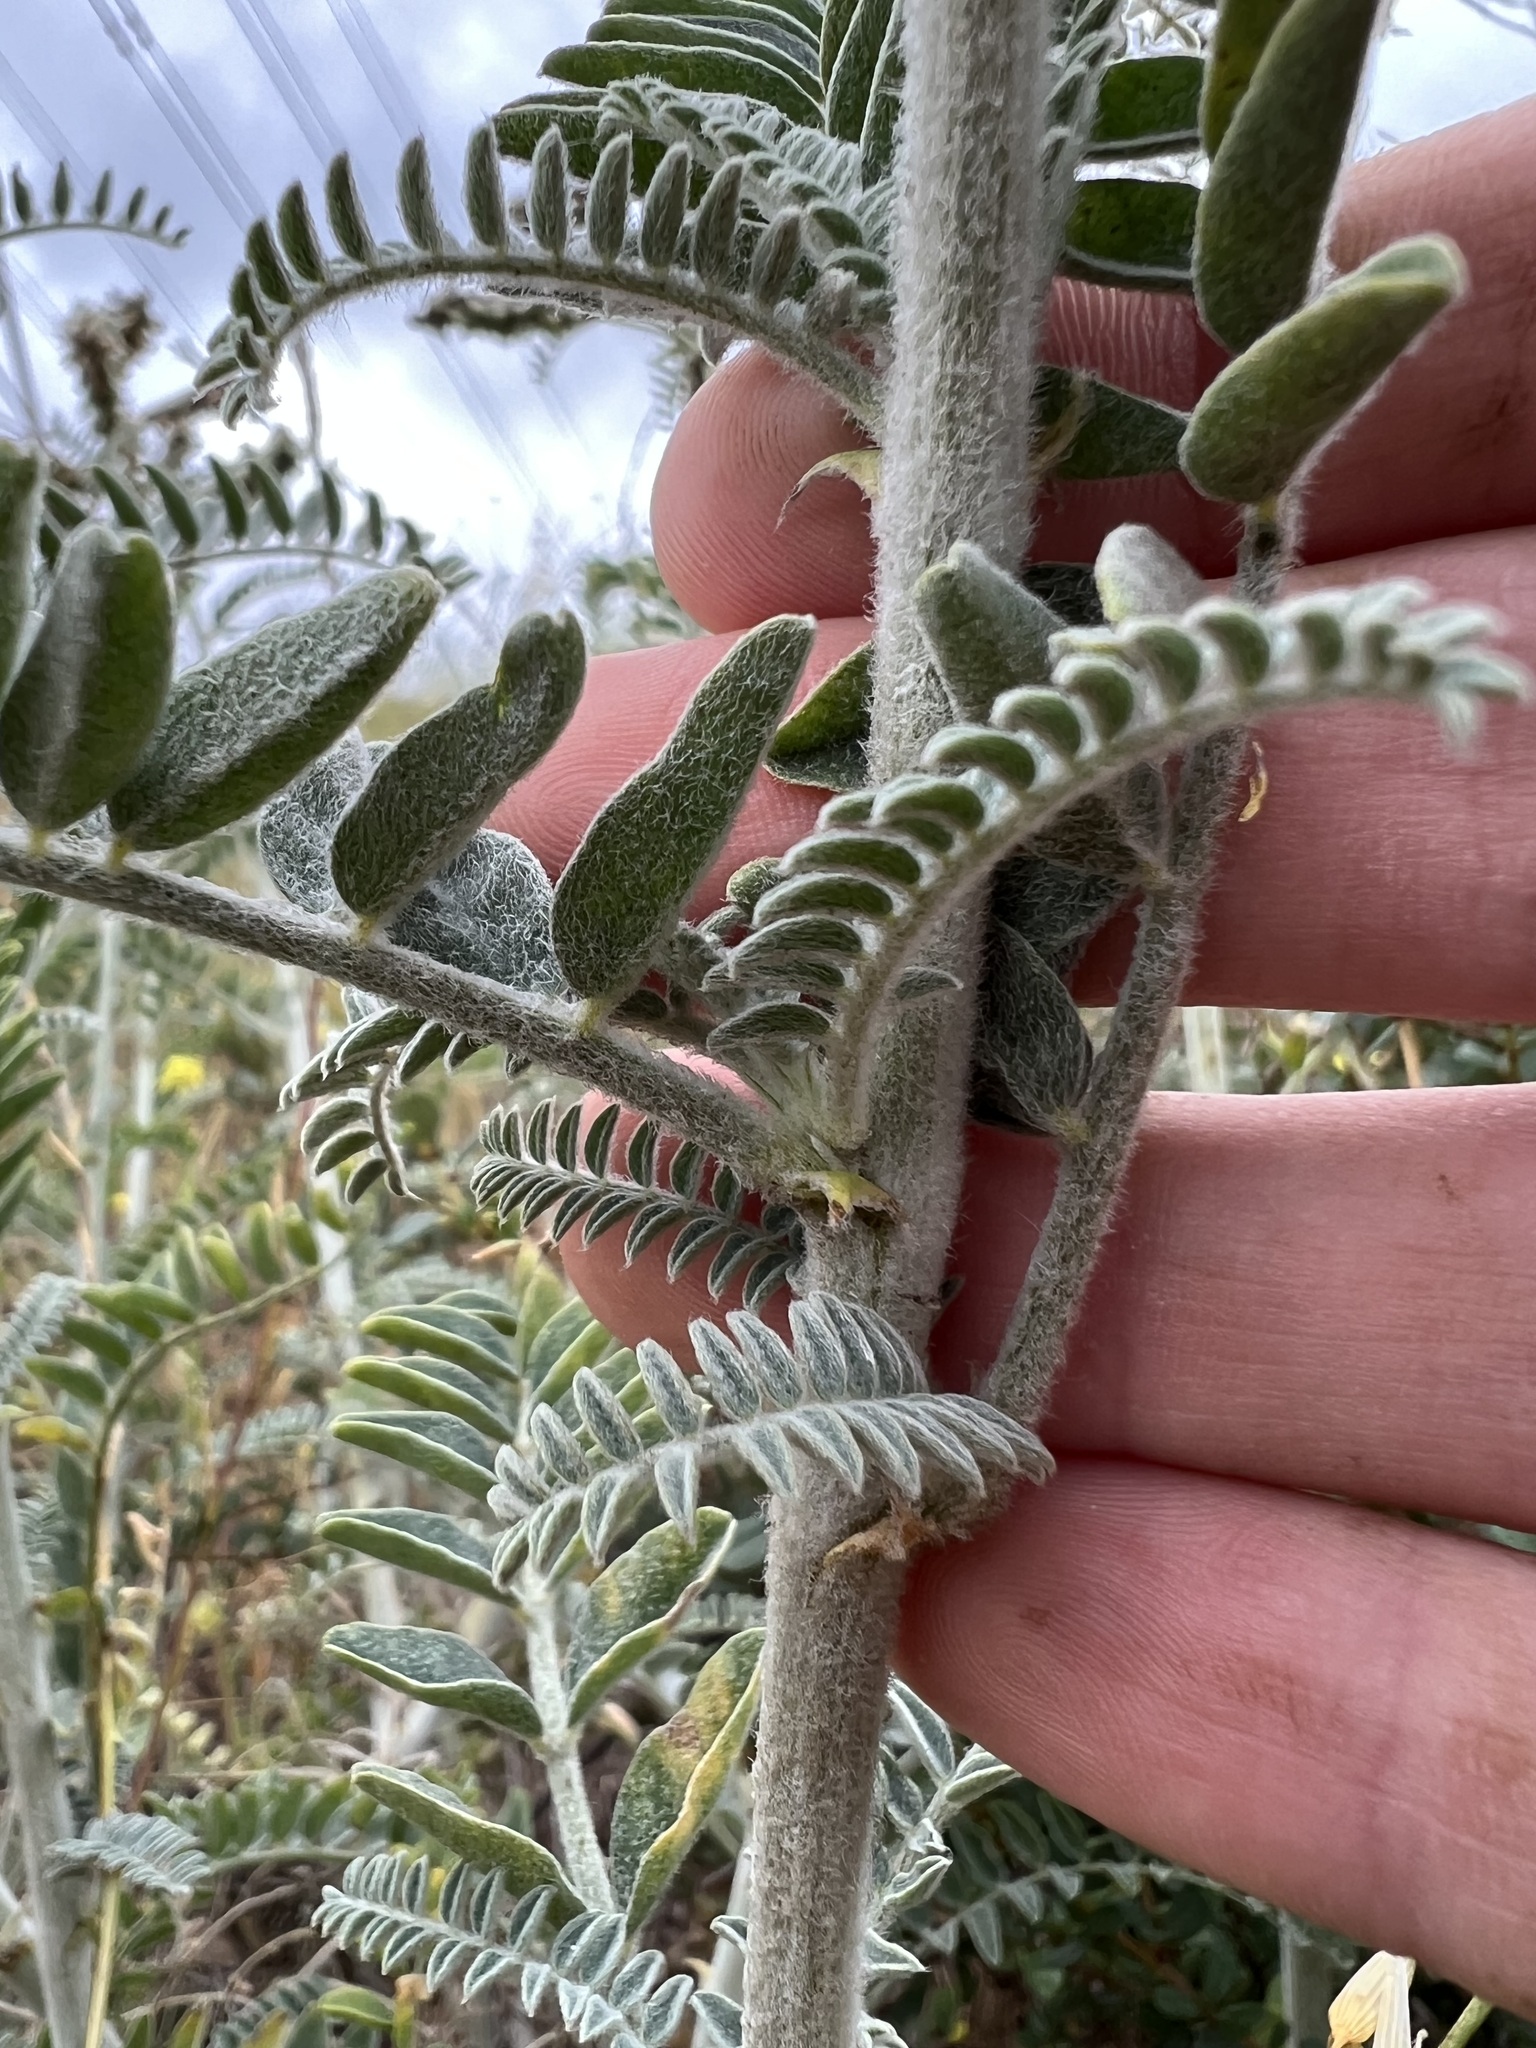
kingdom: Plantae
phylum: Tracheophyta
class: Magnoliopsida
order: Fabales
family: Fabaceae
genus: Astragalus
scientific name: Astragalus brauntonii
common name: Braunton's milk-vetch
